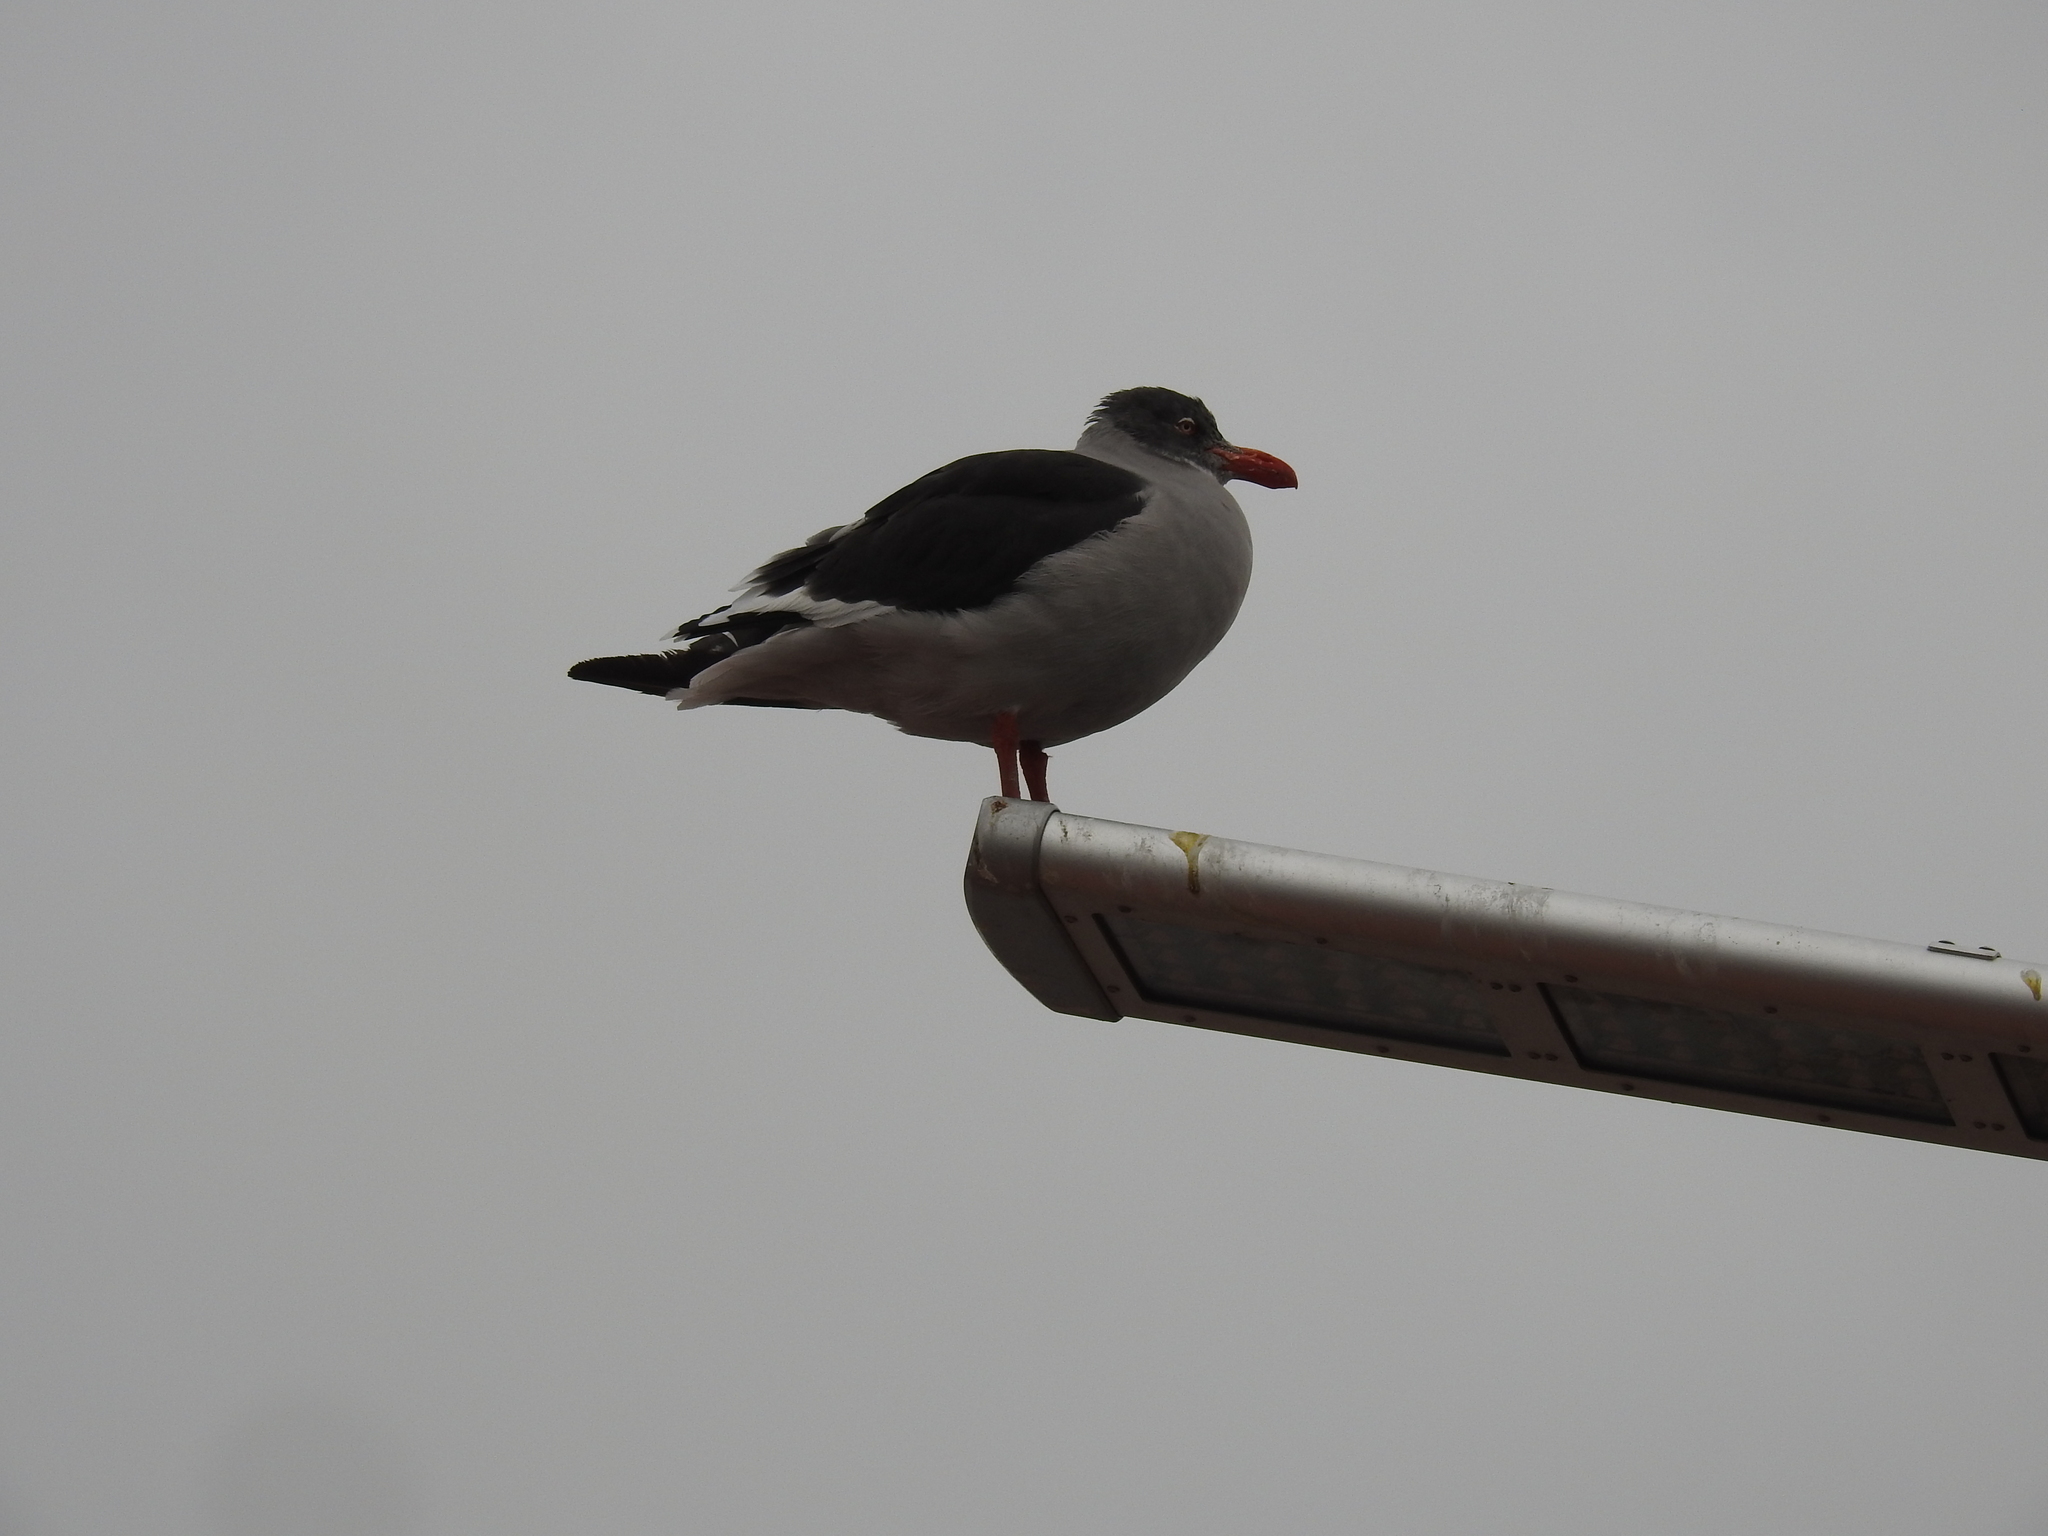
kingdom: Animalia
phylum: Chordata
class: Aves
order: Charadriiformes
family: Laridae
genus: Leucophaeus
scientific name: Leucophaeus scoresbii
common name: Dolphin gull
